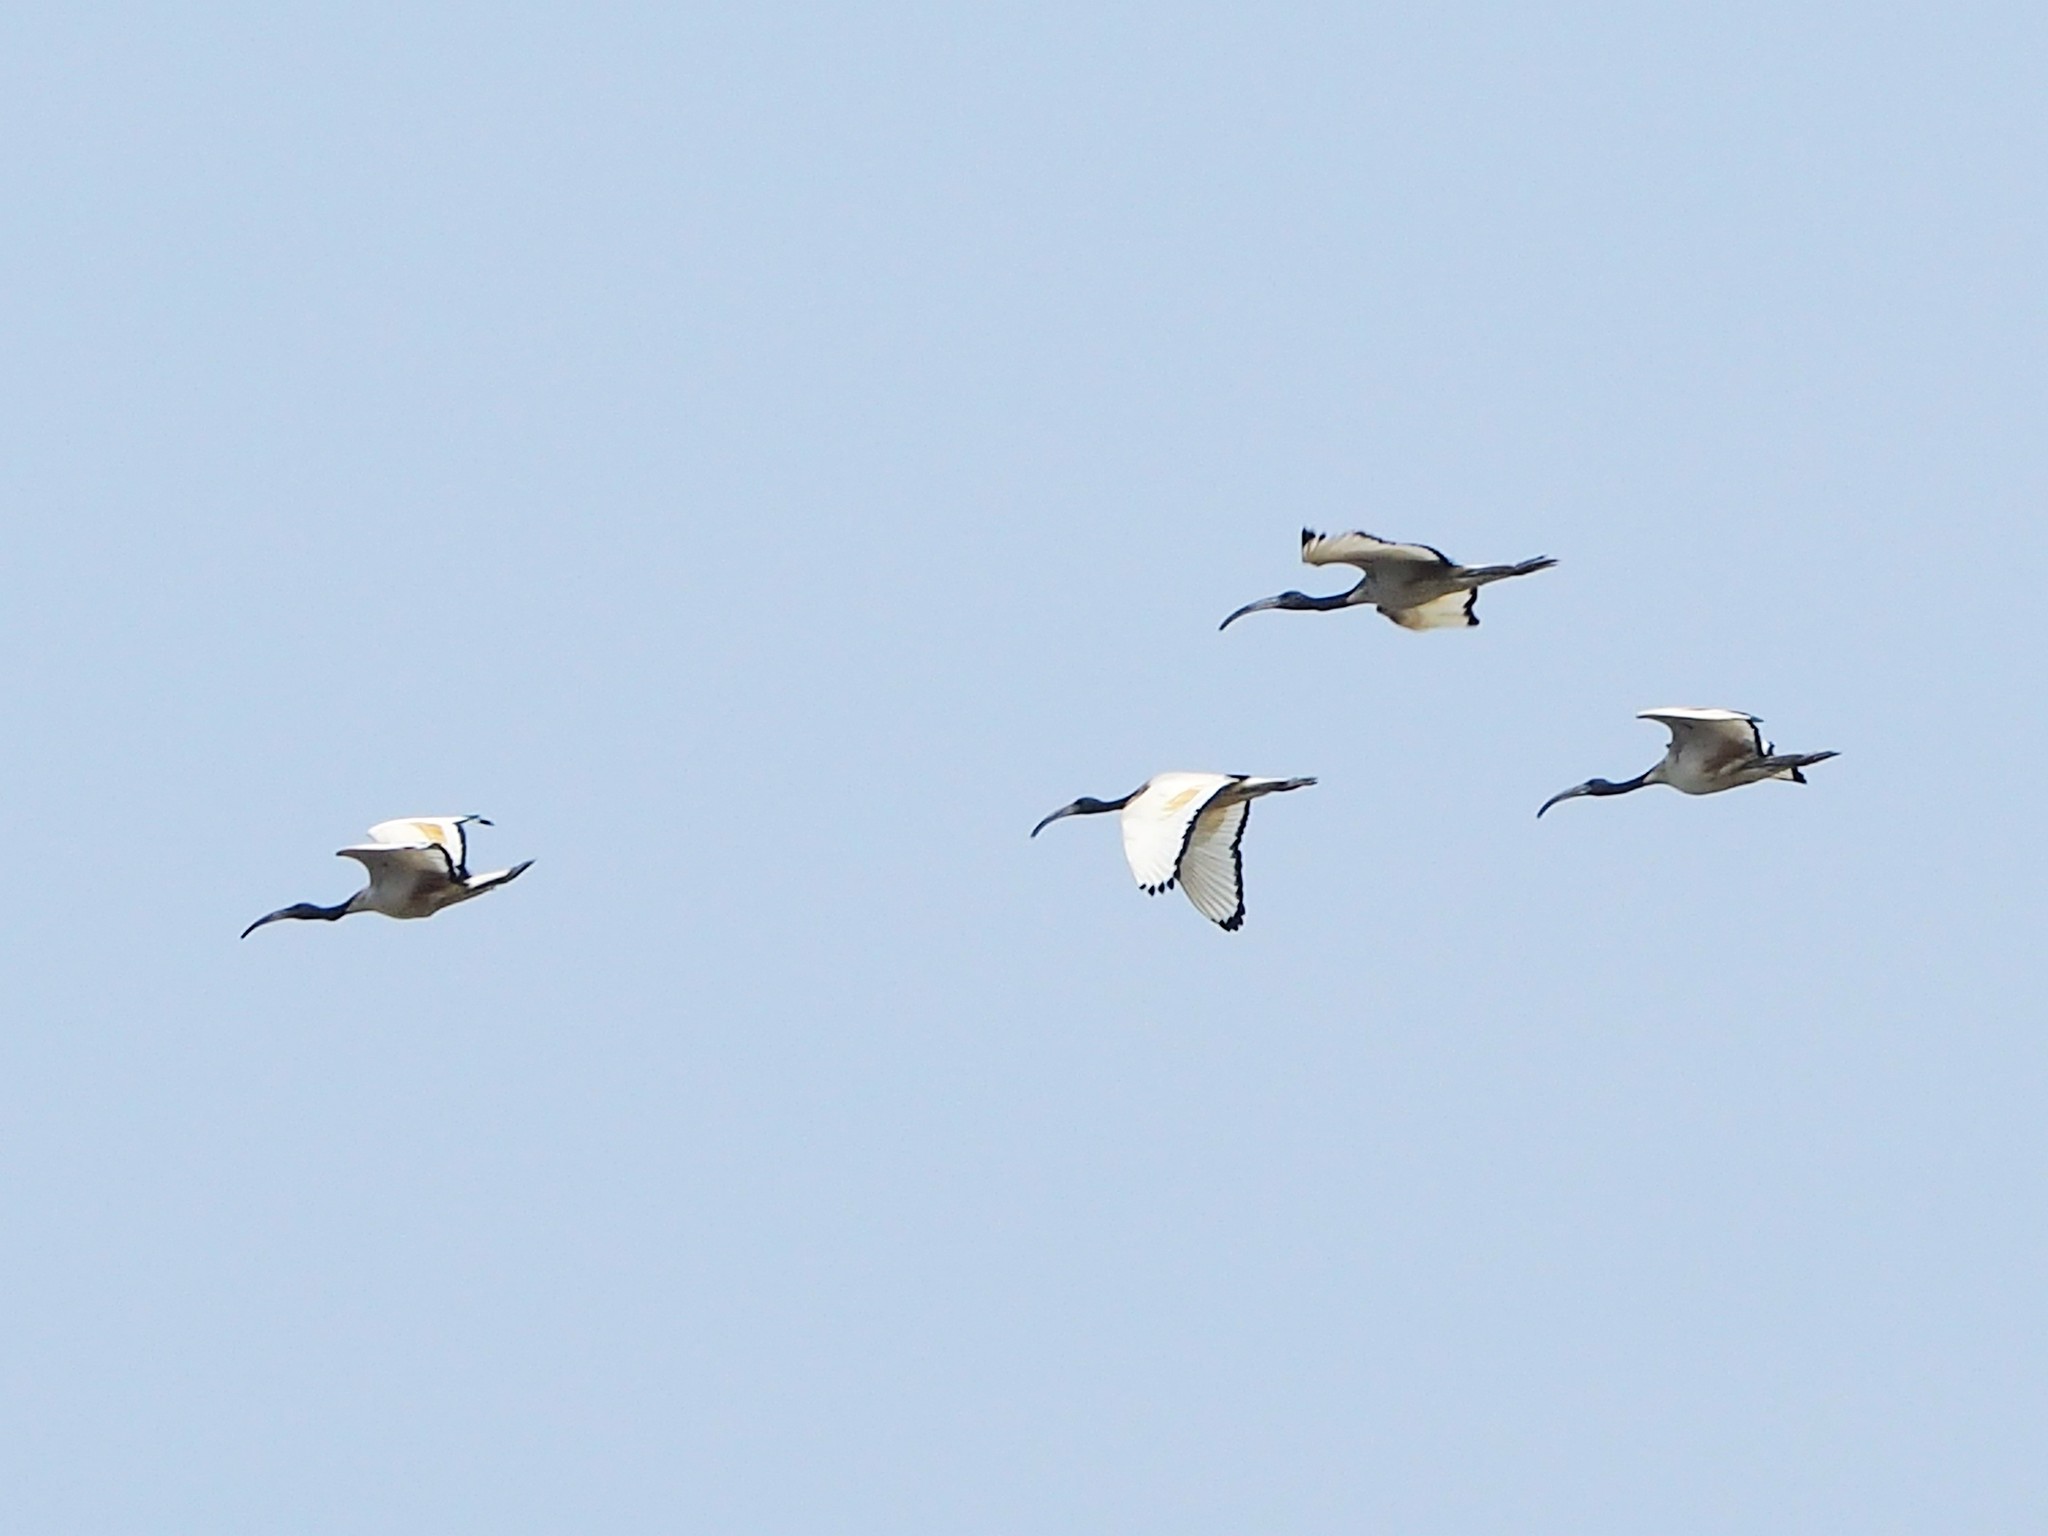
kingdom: Animalia
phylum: Chordata
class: Aves
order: Pelecaniformes
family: Threskiornithidae
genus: Threskiornis
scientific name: Threskiornis aethiopicus
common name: Sacred ibis
